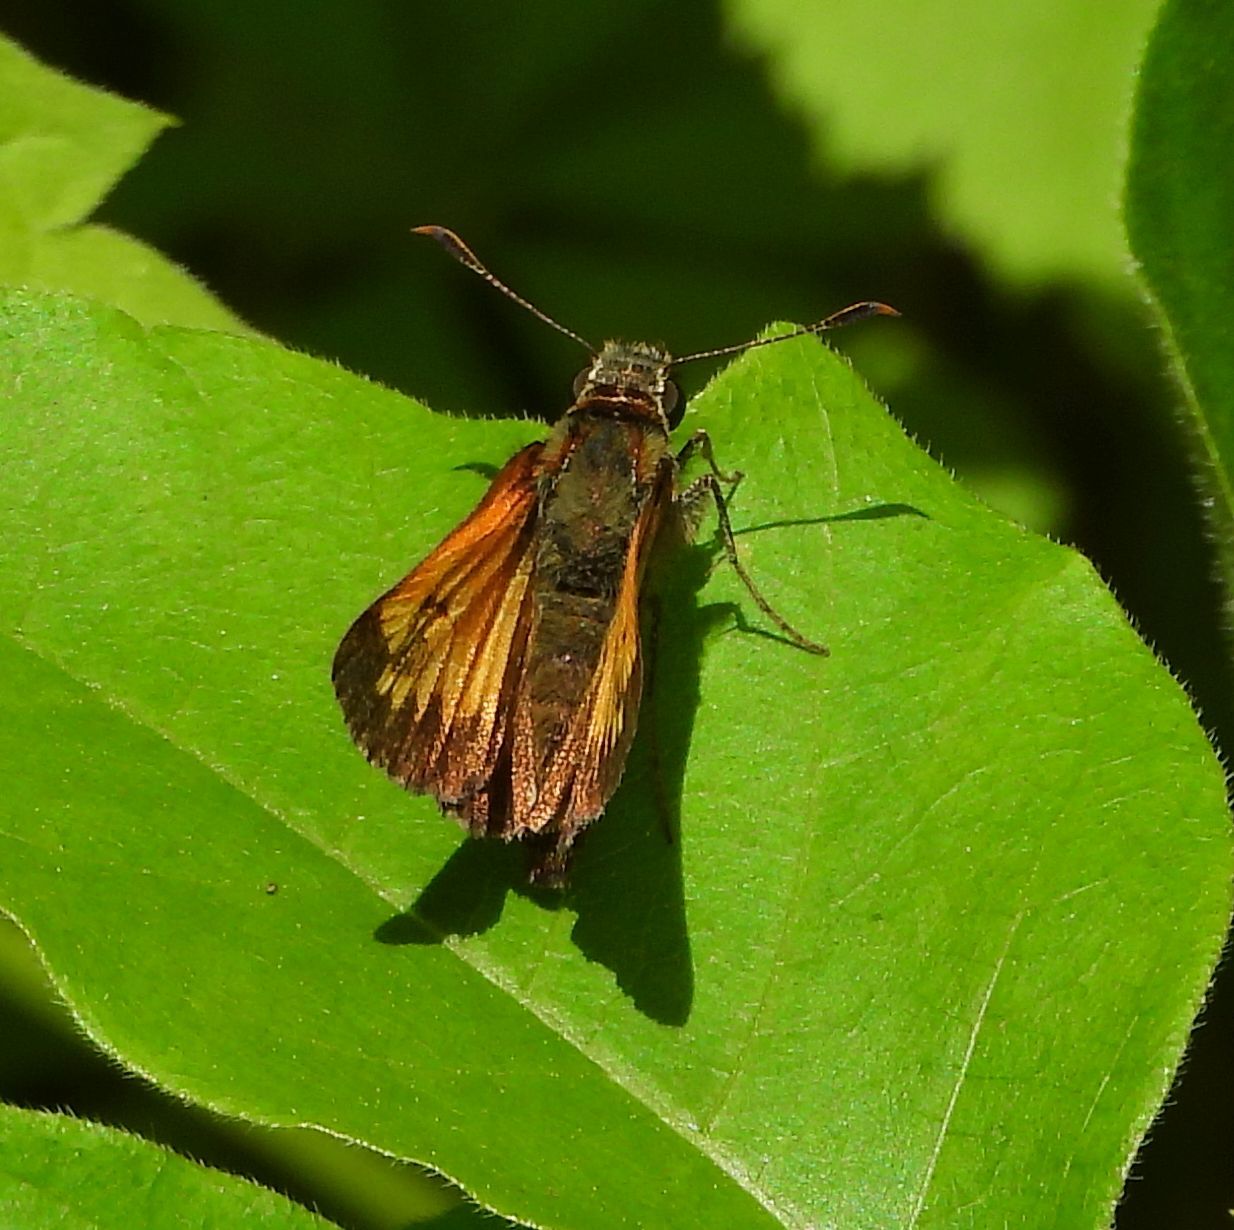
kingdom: Animalia
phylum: Arthropoda
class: Insecta
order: Lepidoptera
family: Hesperiidae
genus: Lon
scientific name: Lon hobomok
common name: Hobomok skipper
